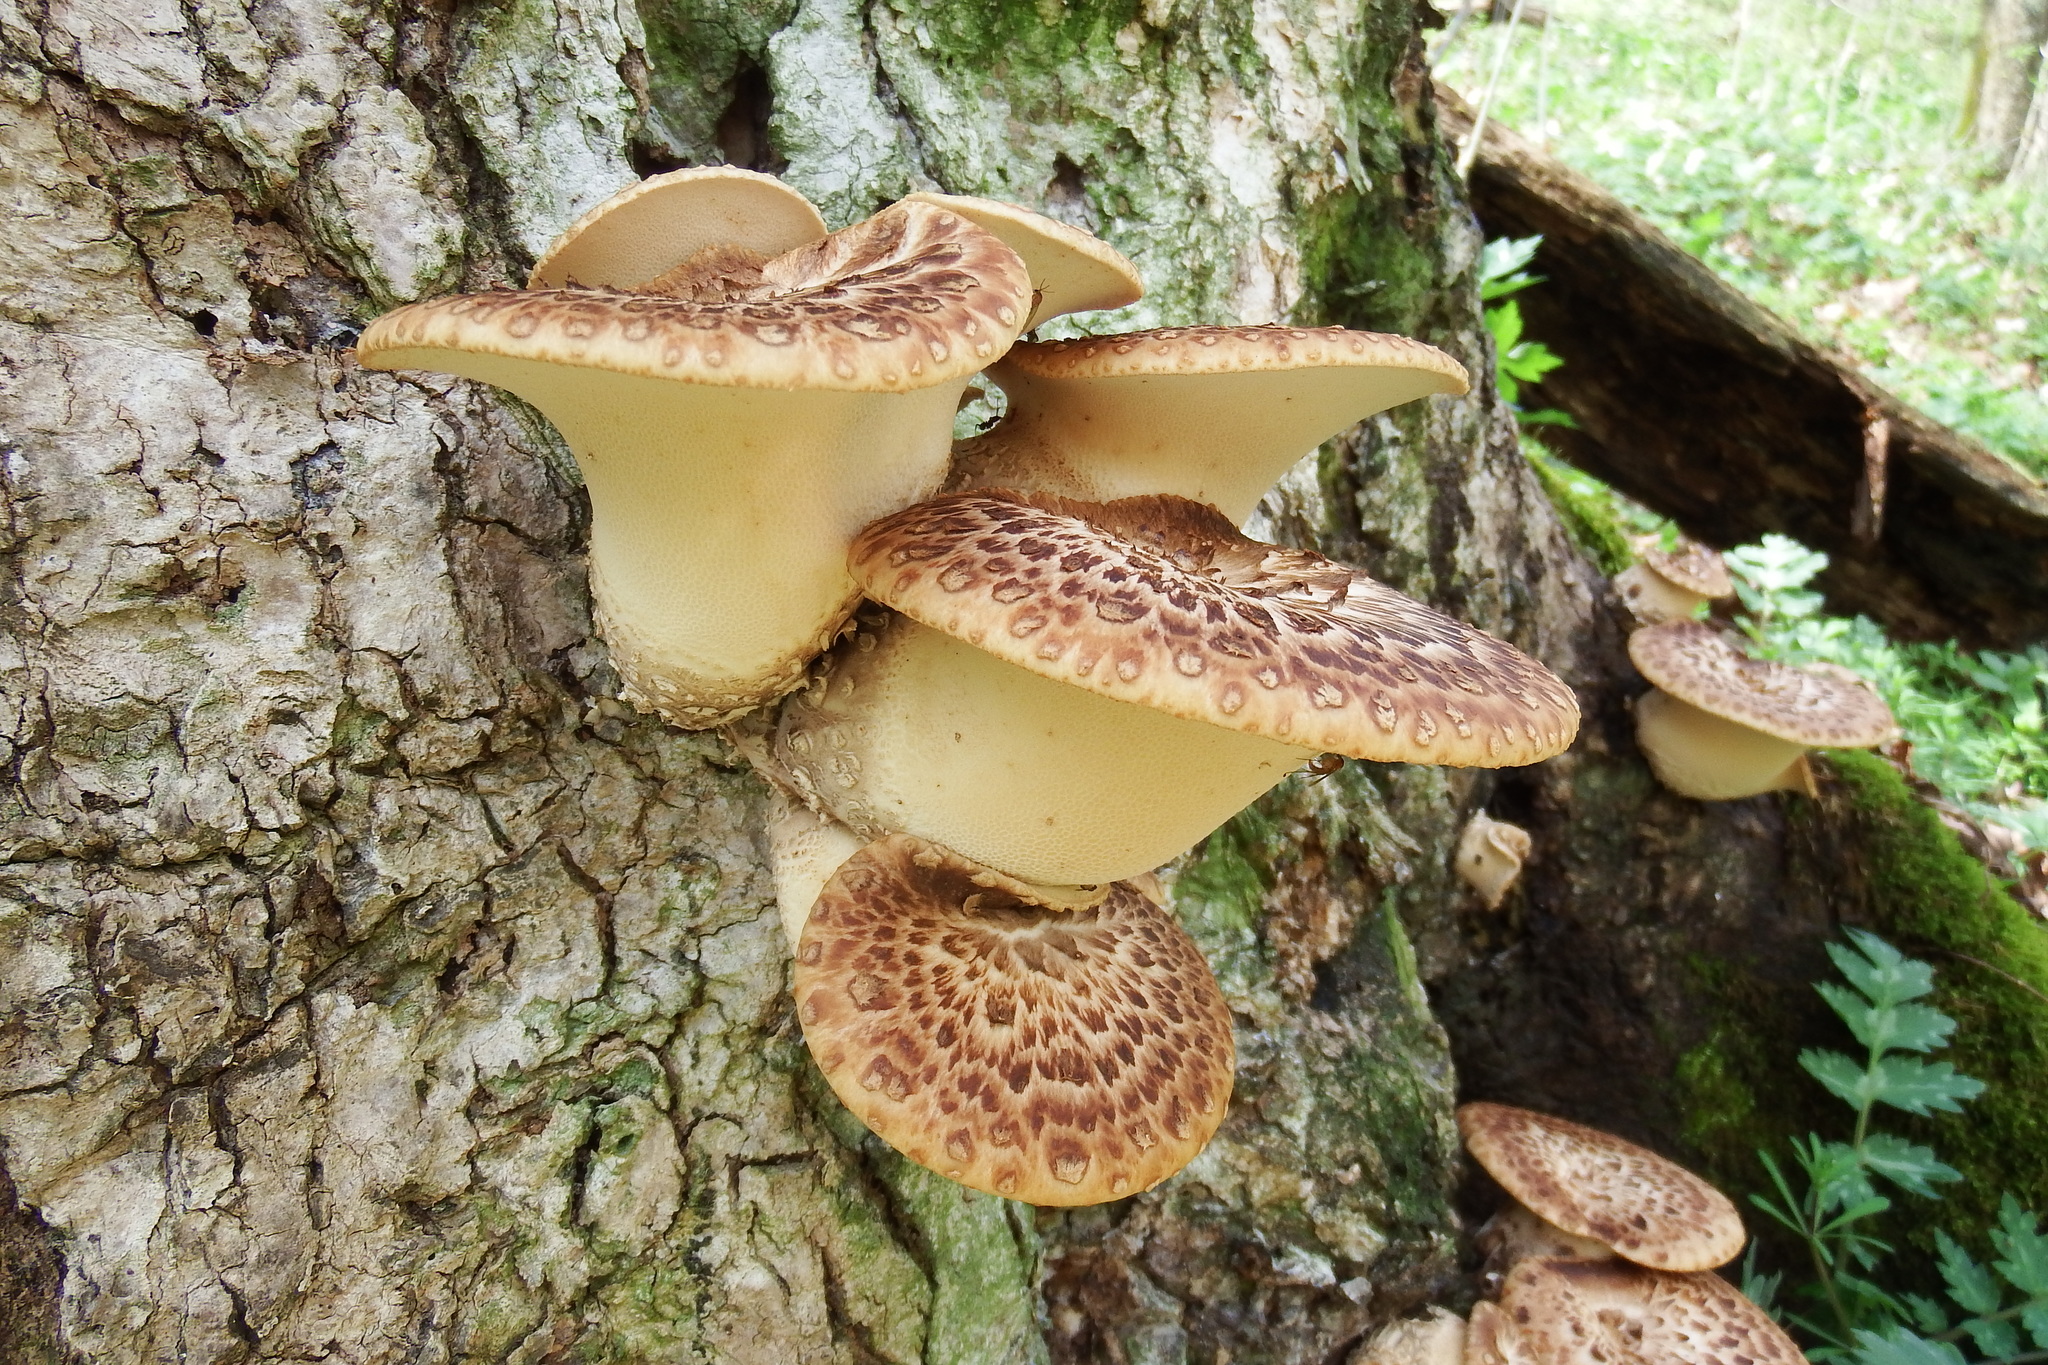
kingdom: Fungi
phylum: Basidiomycota
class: Agaricomycetes
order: Polyporales
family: Polyporaceae
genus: Cerioporus
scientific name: Cerioporus squamosus
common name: Dryad's saddle
